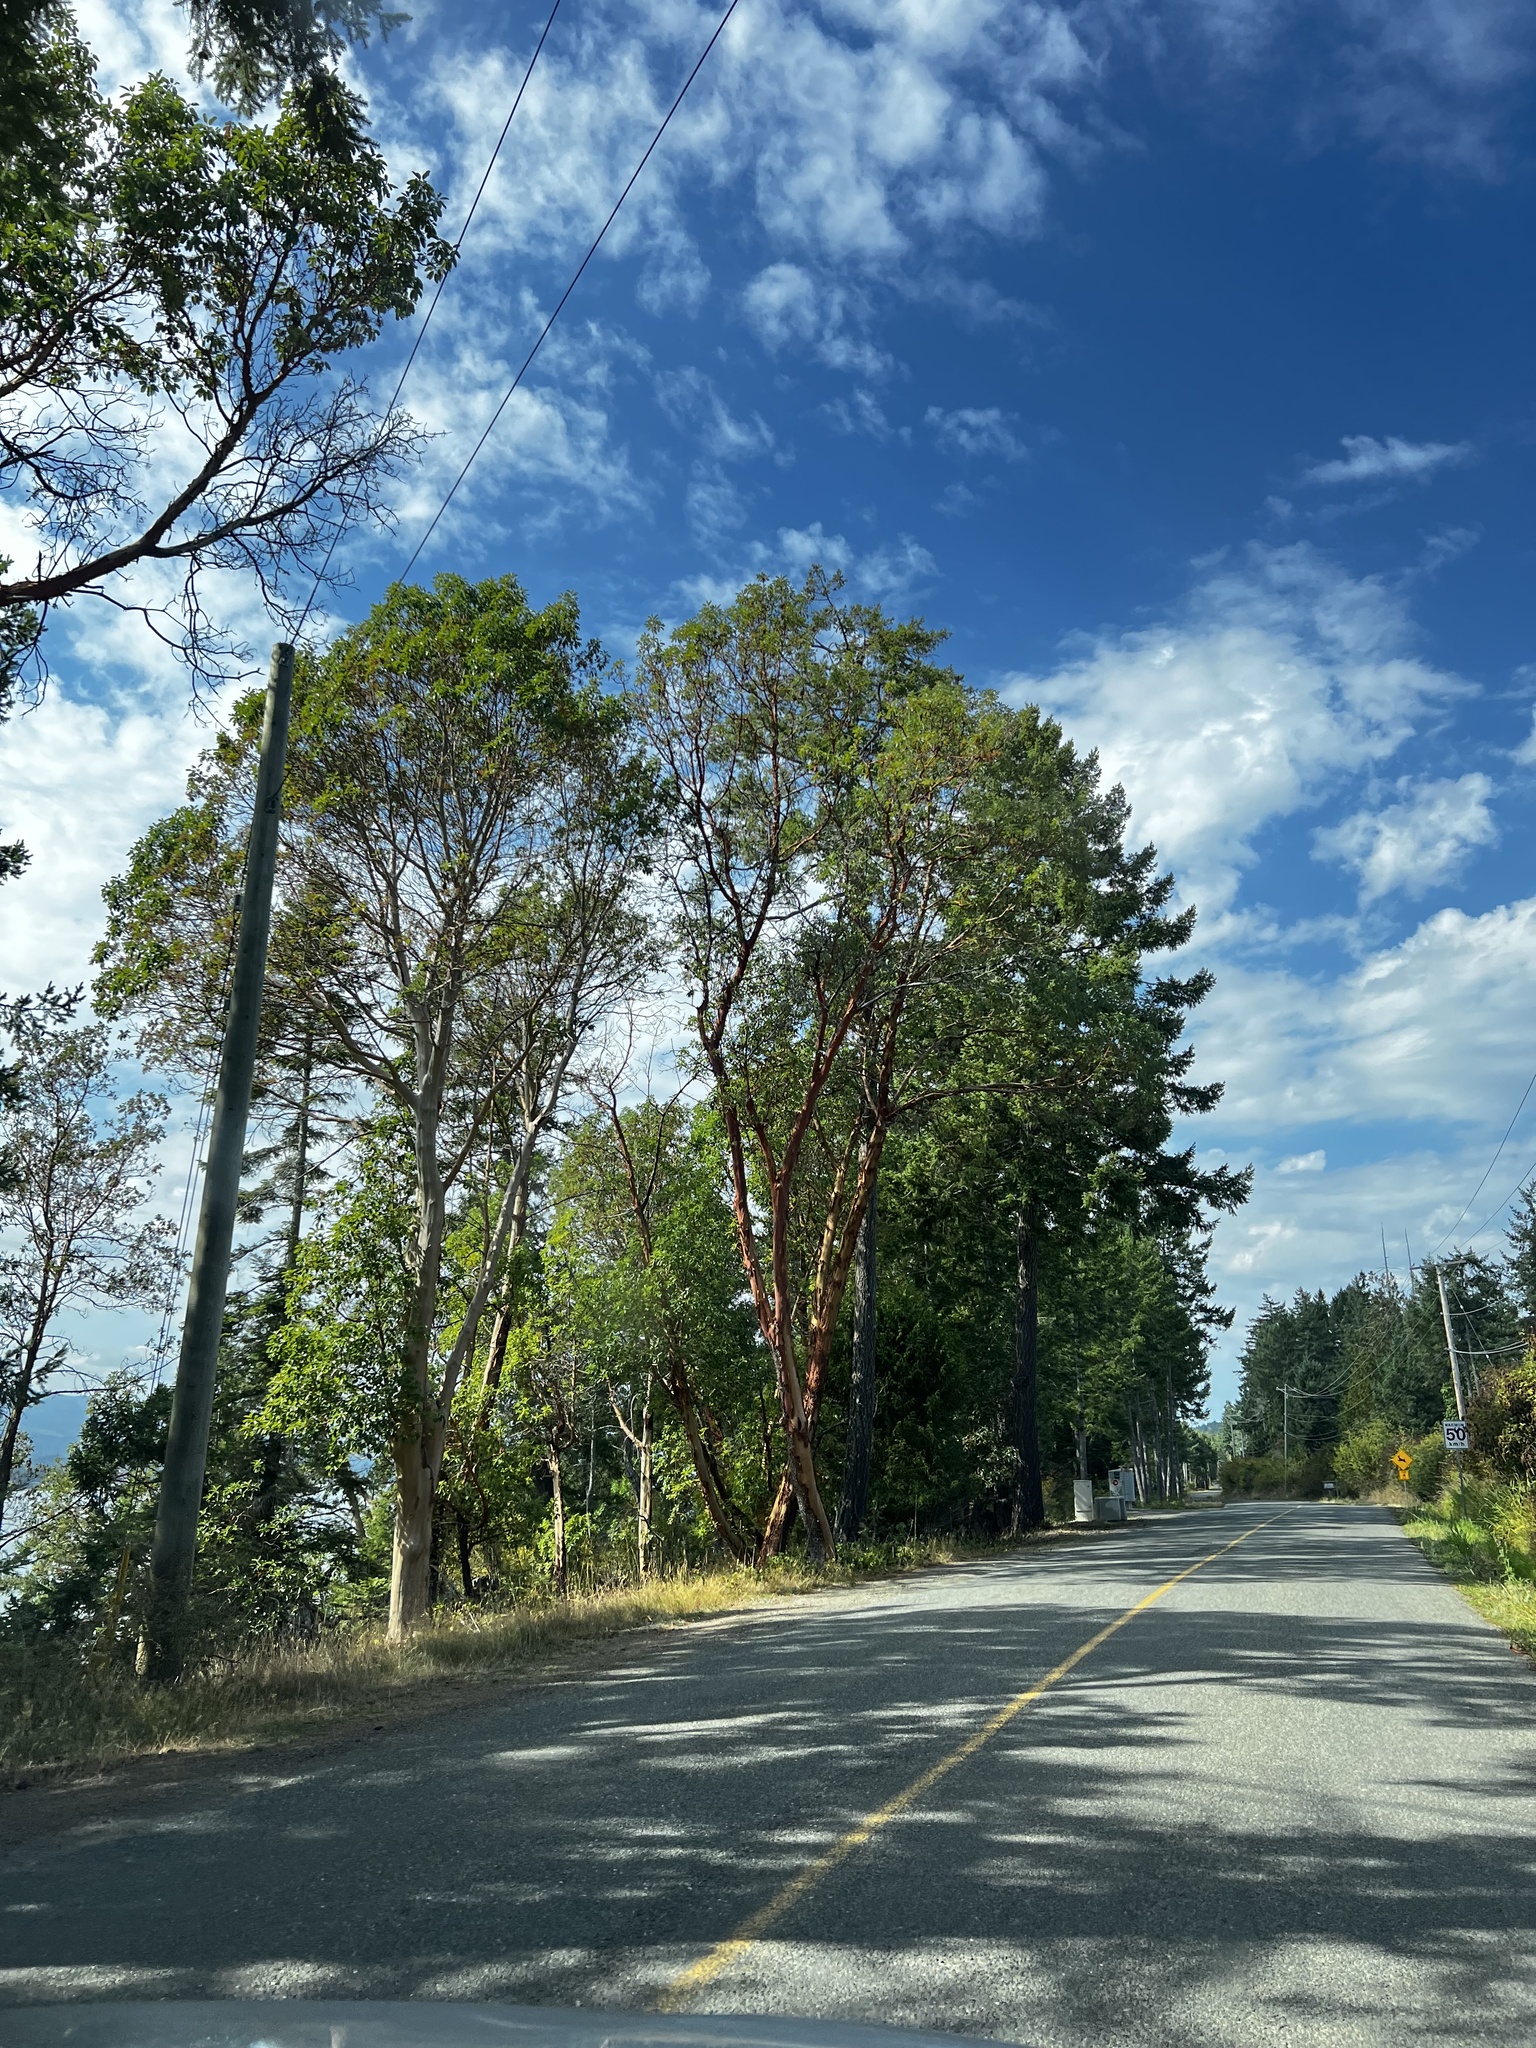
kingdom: Plantae
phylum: Tracheophyta
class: Magnoliopsida
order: Ericales
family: Ericaceae
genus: Arbutus
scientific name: Arbutus menziesii
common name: Pacific madrone
